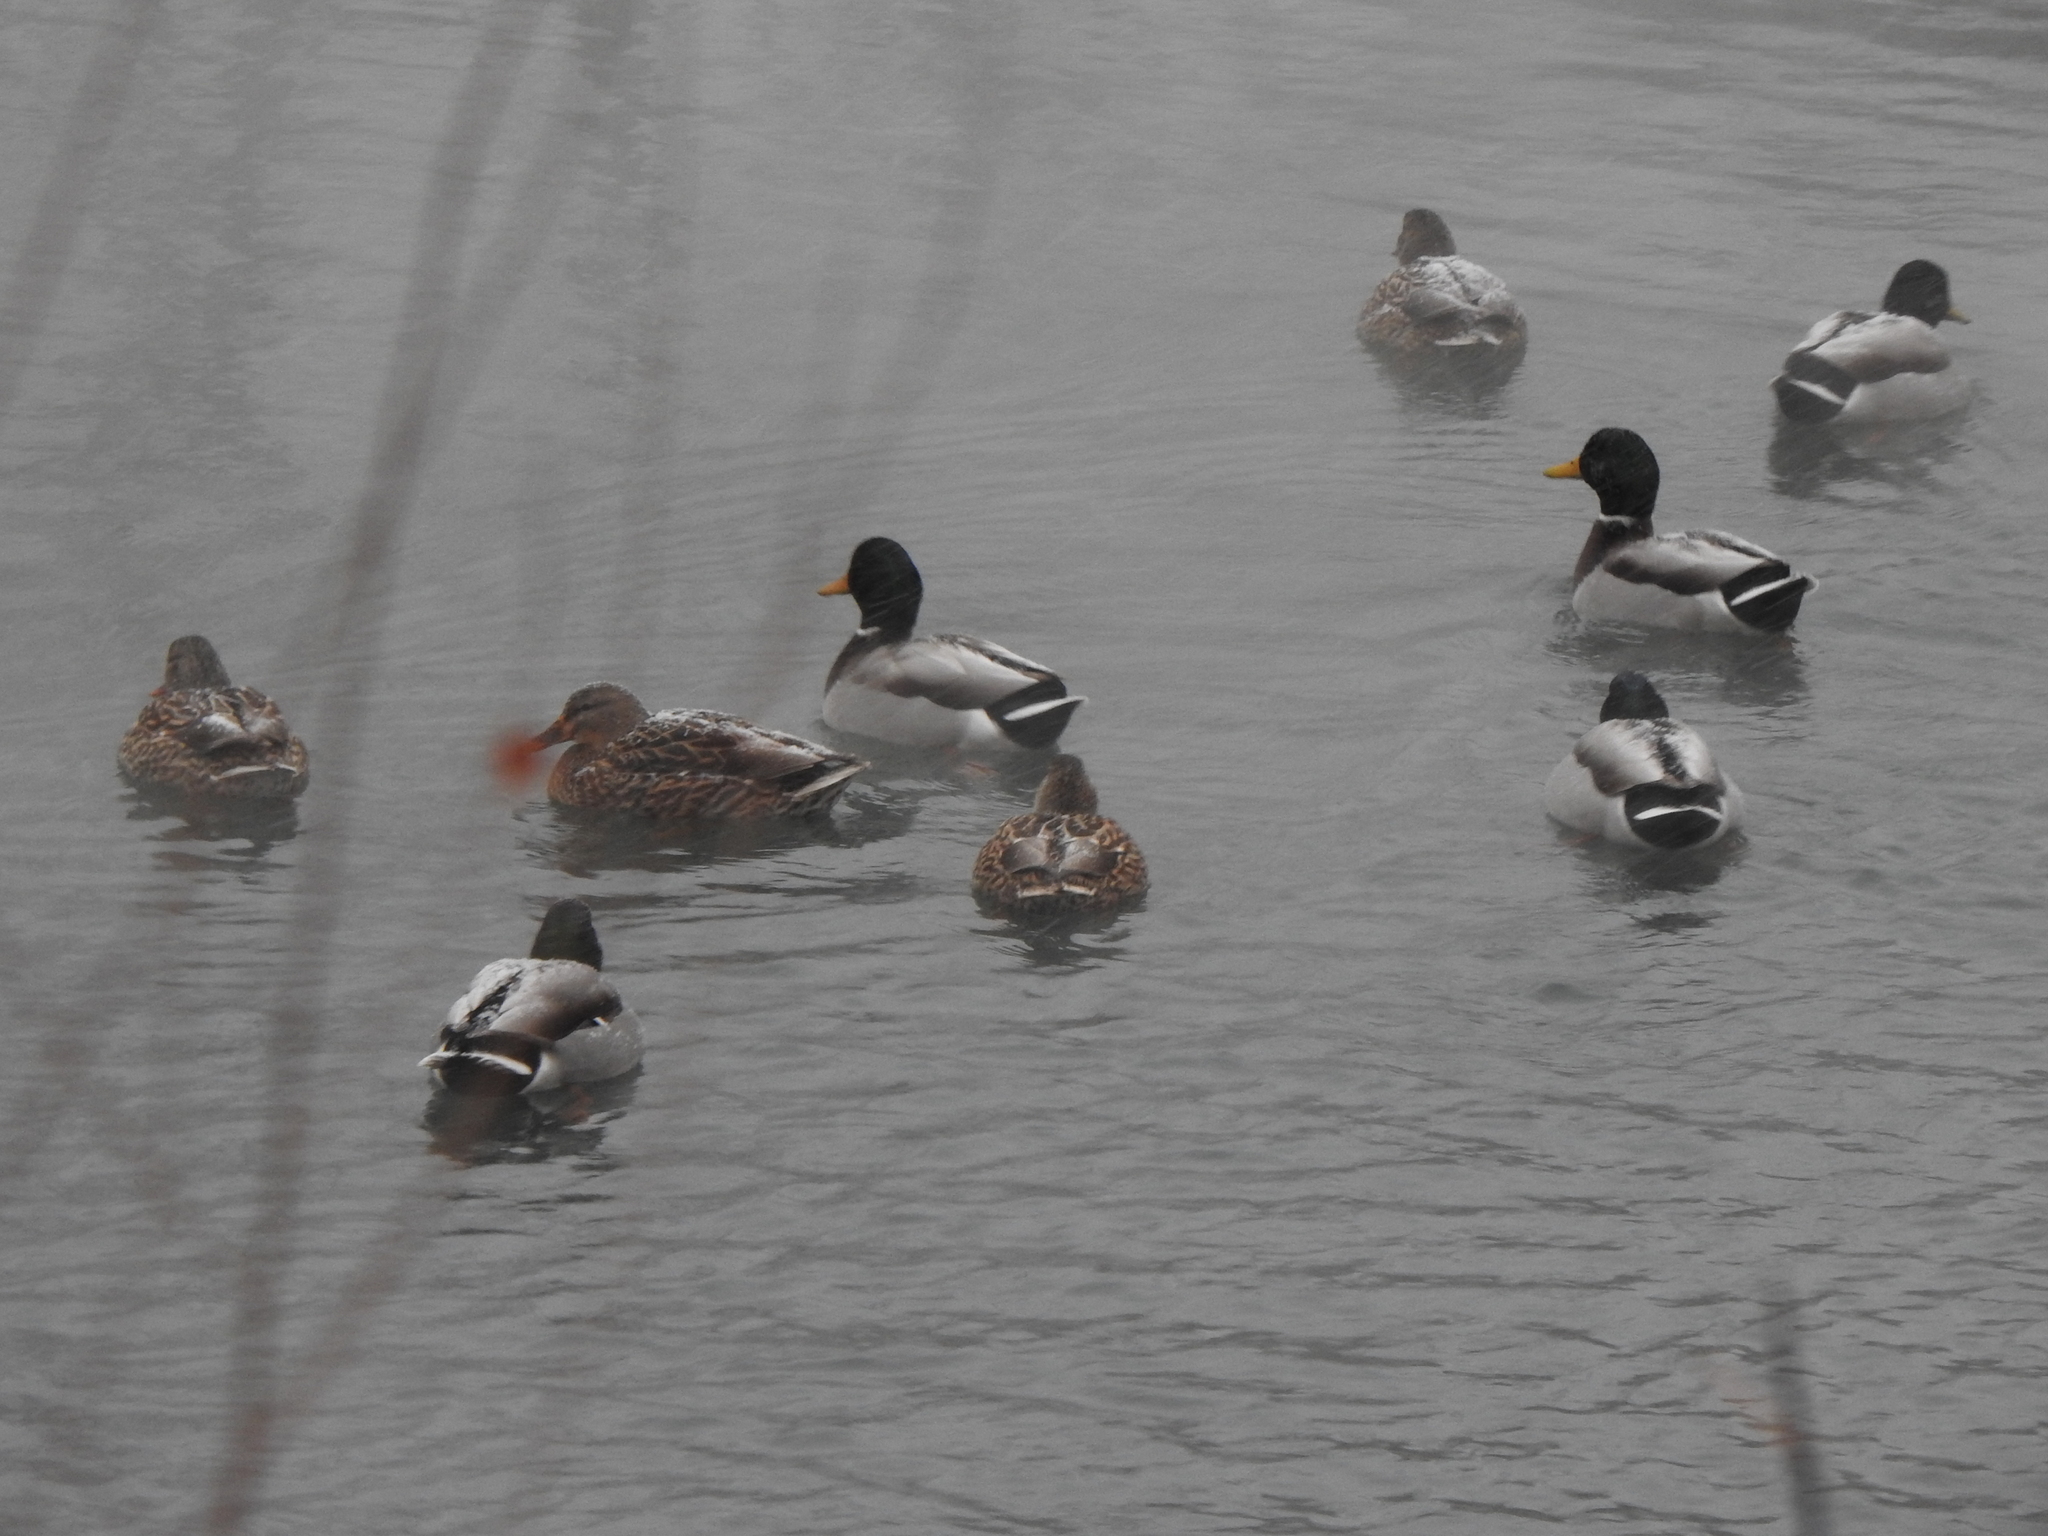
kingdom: Animalia
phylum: Chordata
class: Aves
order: Anseriformes
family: Anatidae
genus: Anas
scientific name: Anas platyrhynchos
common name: Mallard
